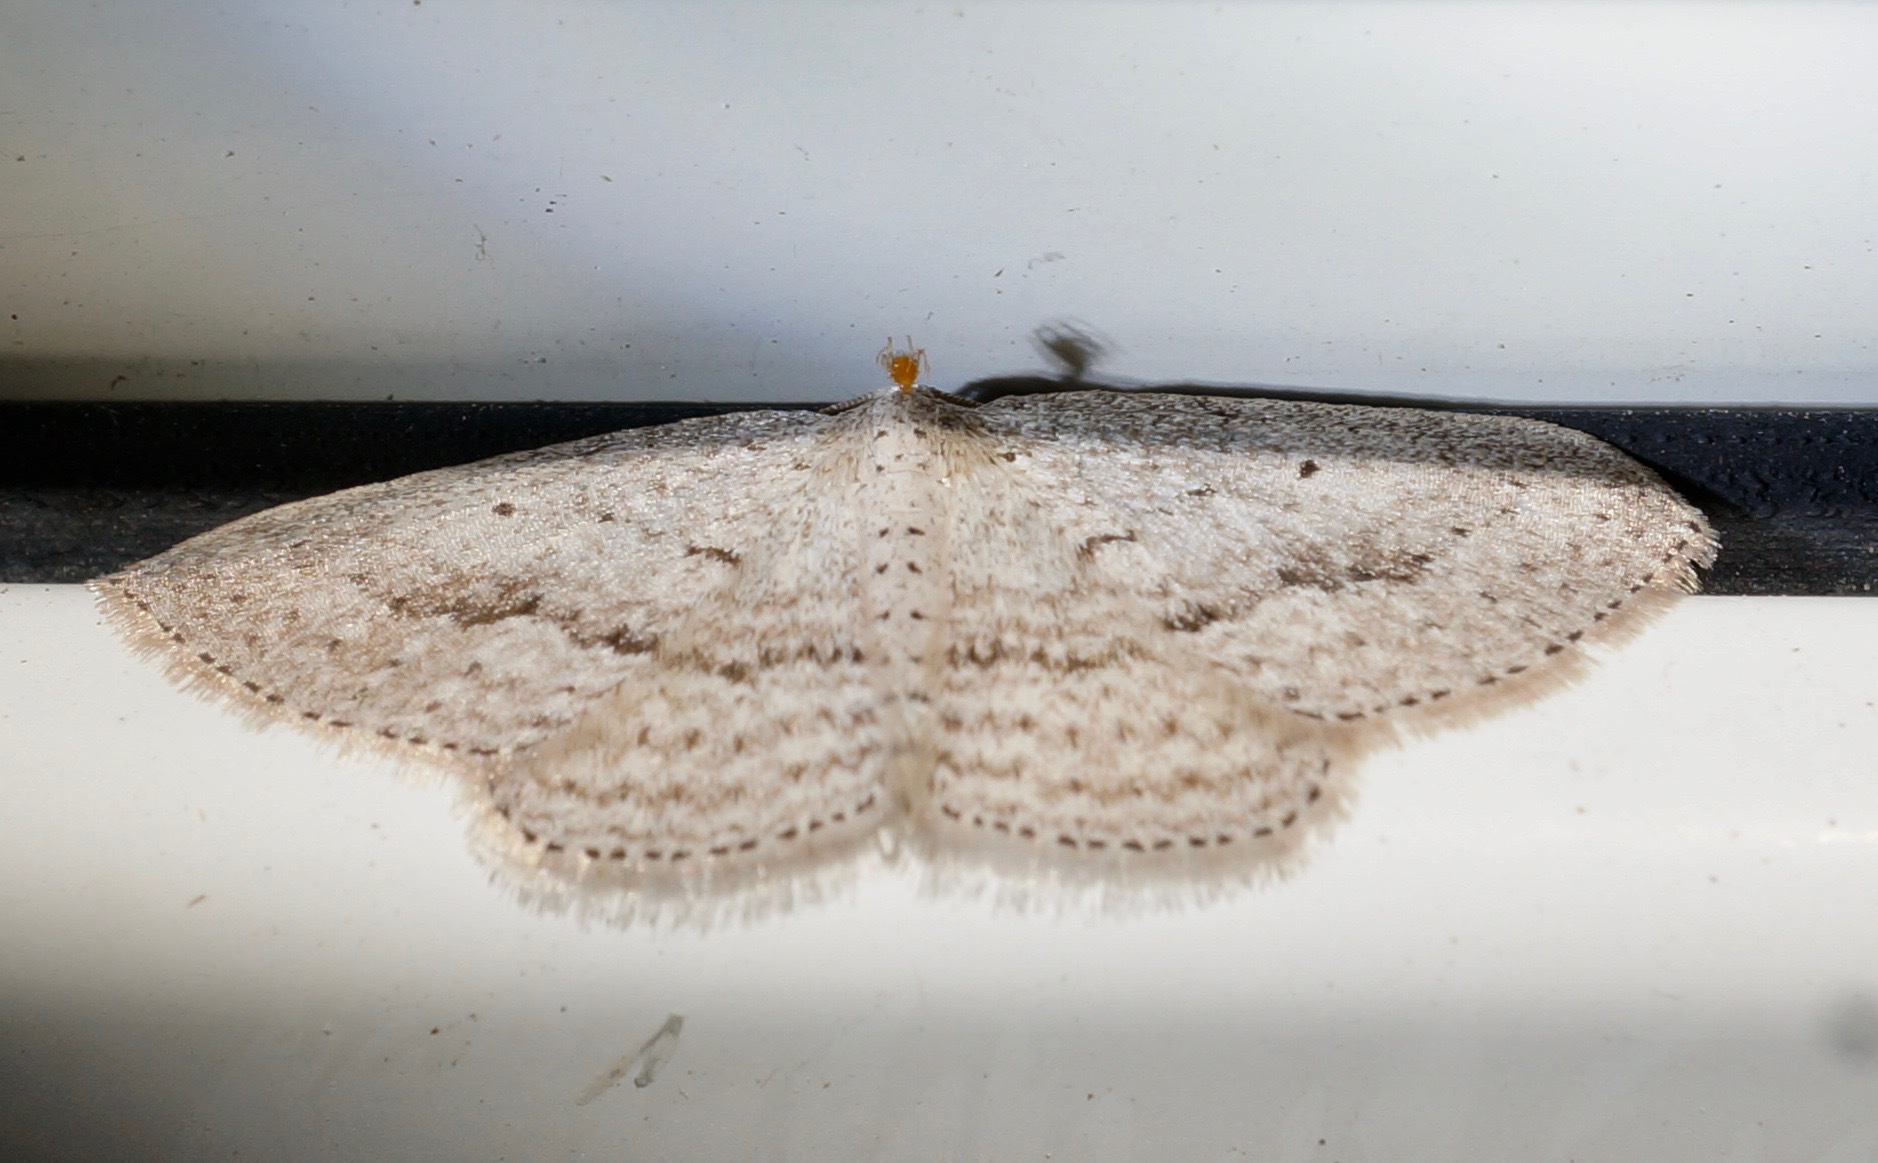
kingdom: Animalia
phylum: Arthropoda
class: Insecta
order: Lepidoptera
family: Geometridae
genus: Poecilasthena
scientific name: Poecilasthena schistaria
